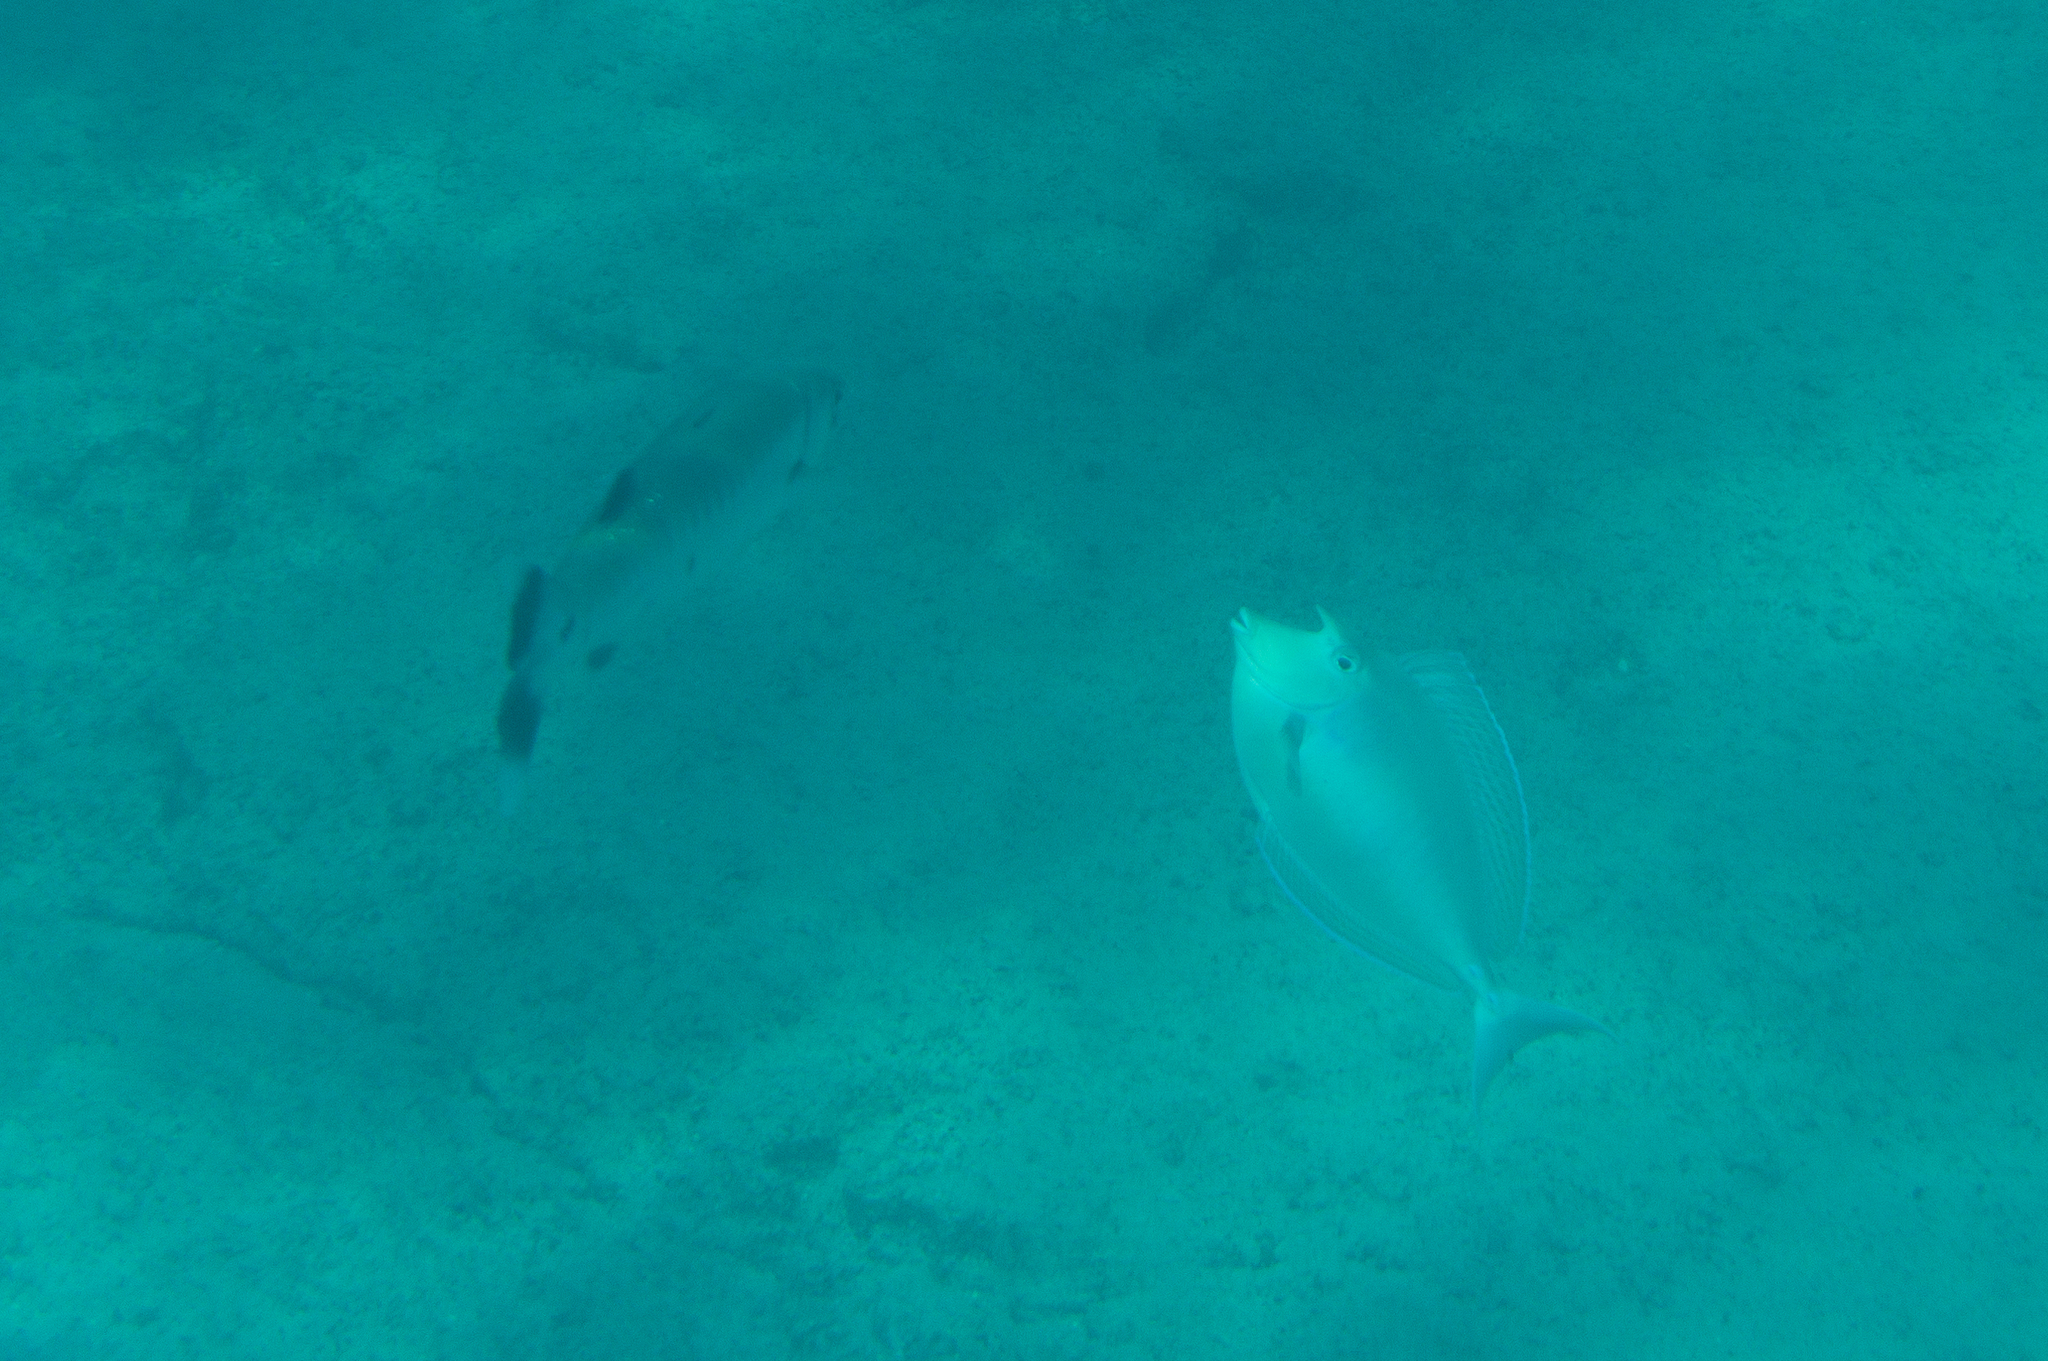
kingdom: Animalia
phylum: Chordata
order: Perciformes
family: Acanthuridae
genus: Naso
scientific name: Naso unicornis
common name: Bluespine unicornfish
